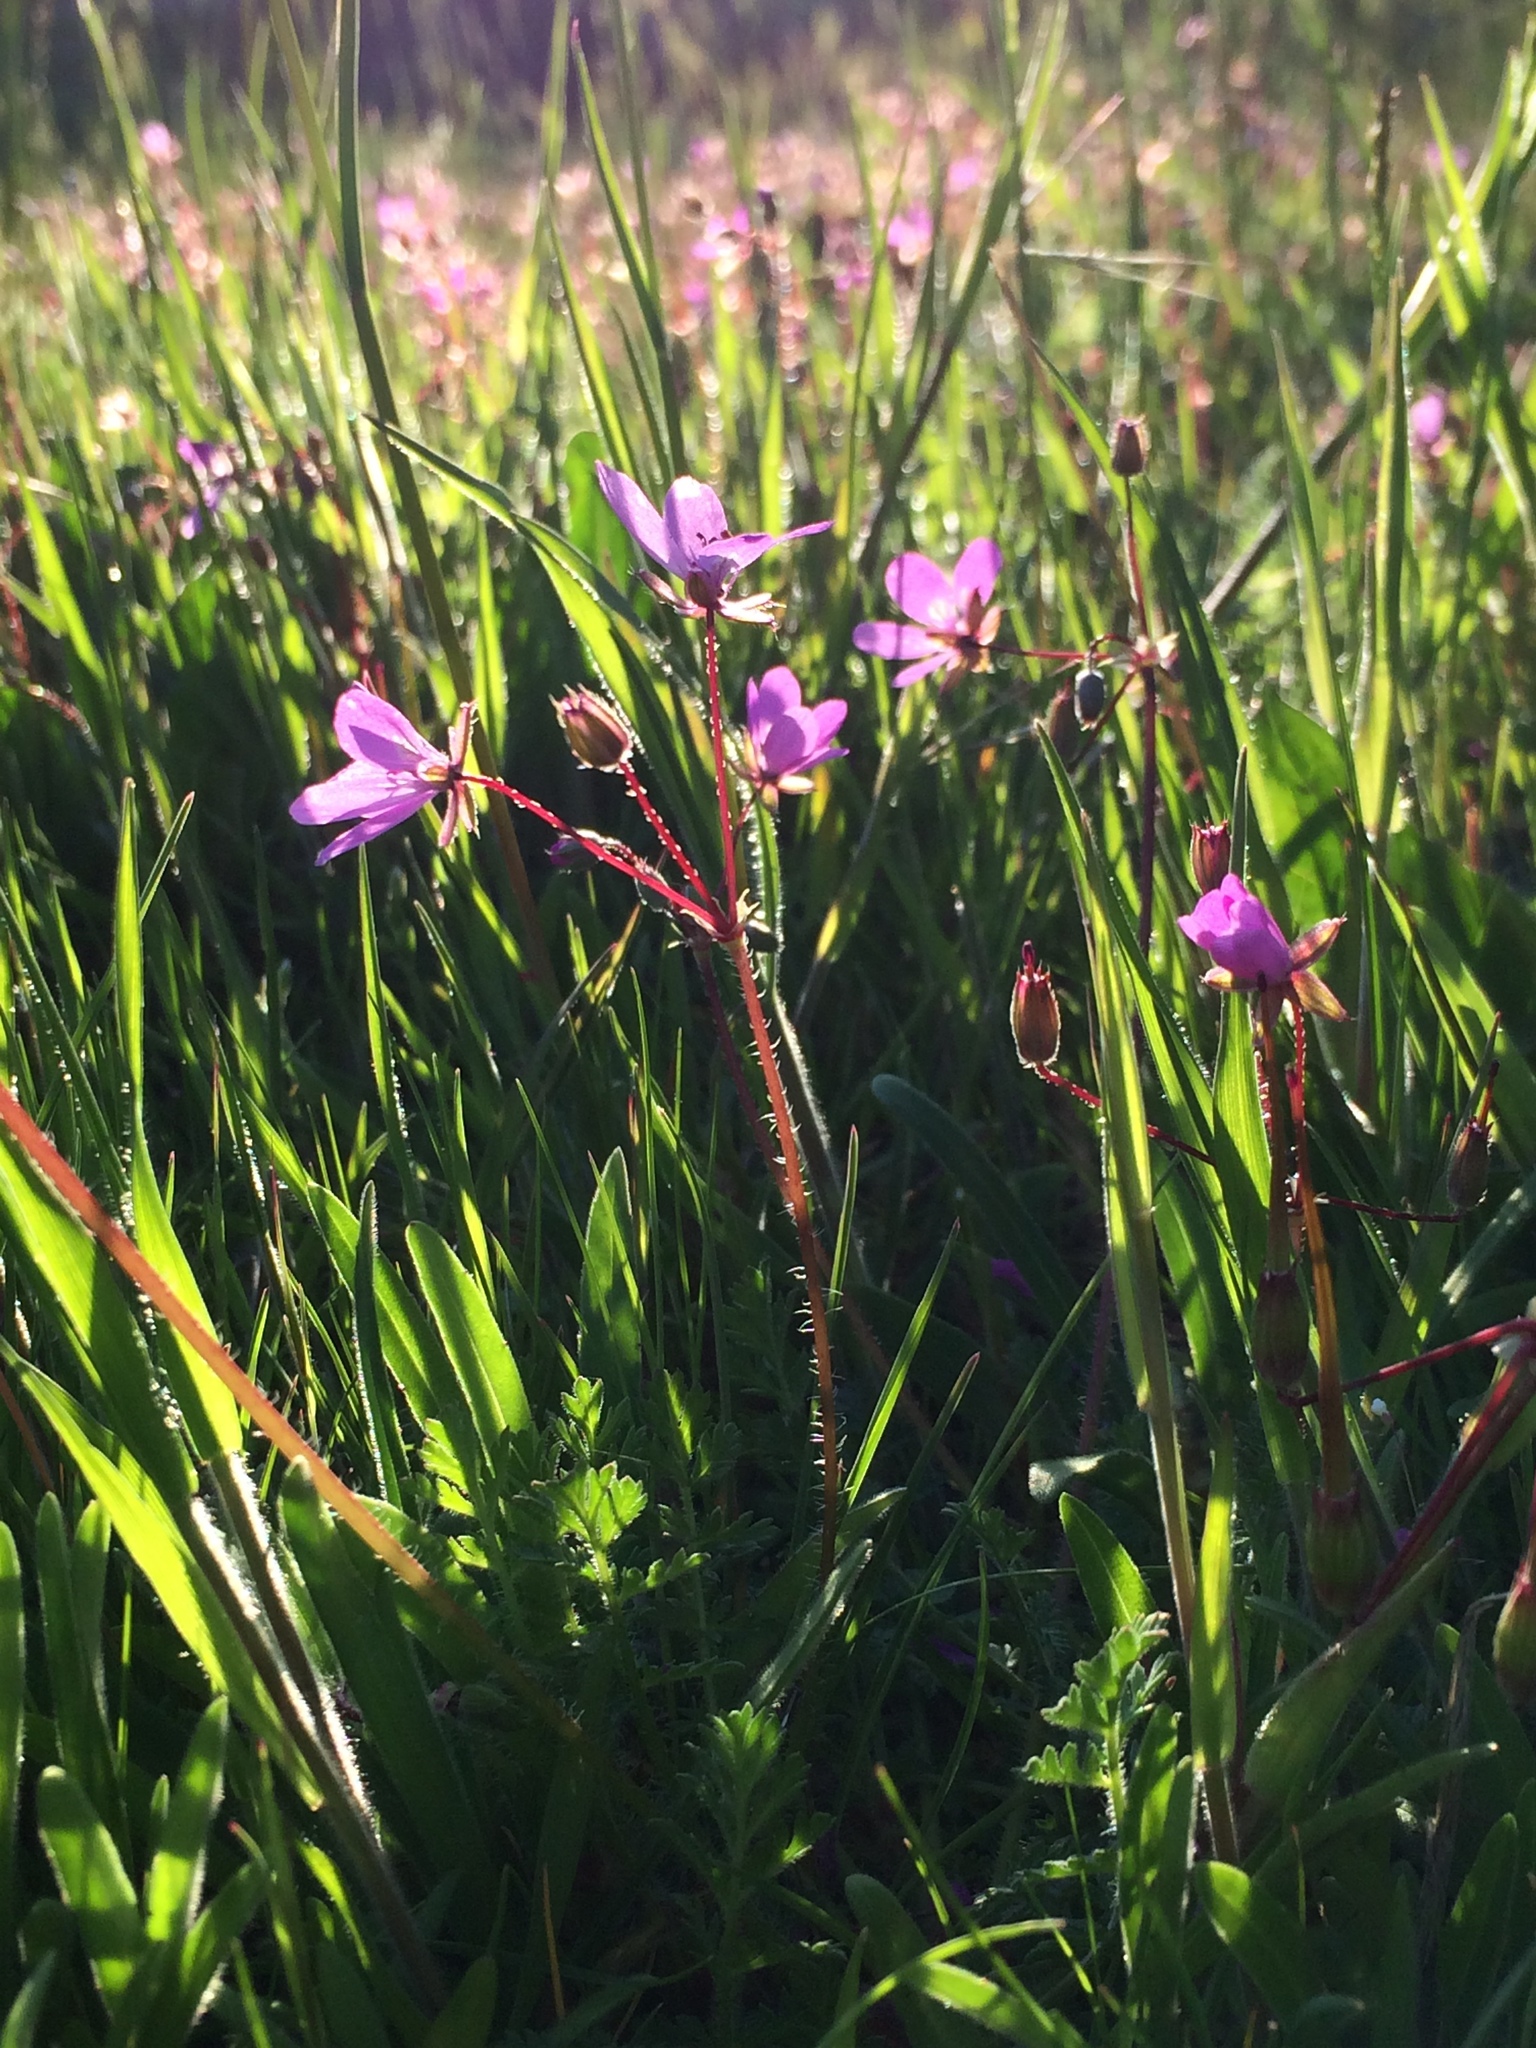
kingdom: Plantae
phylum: Tracheophyta
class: Magnoliopsida
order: Geraniales
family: Geraniaceae
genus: Erodium
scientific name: Erodium cicutarium
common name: Common stork's-bill
